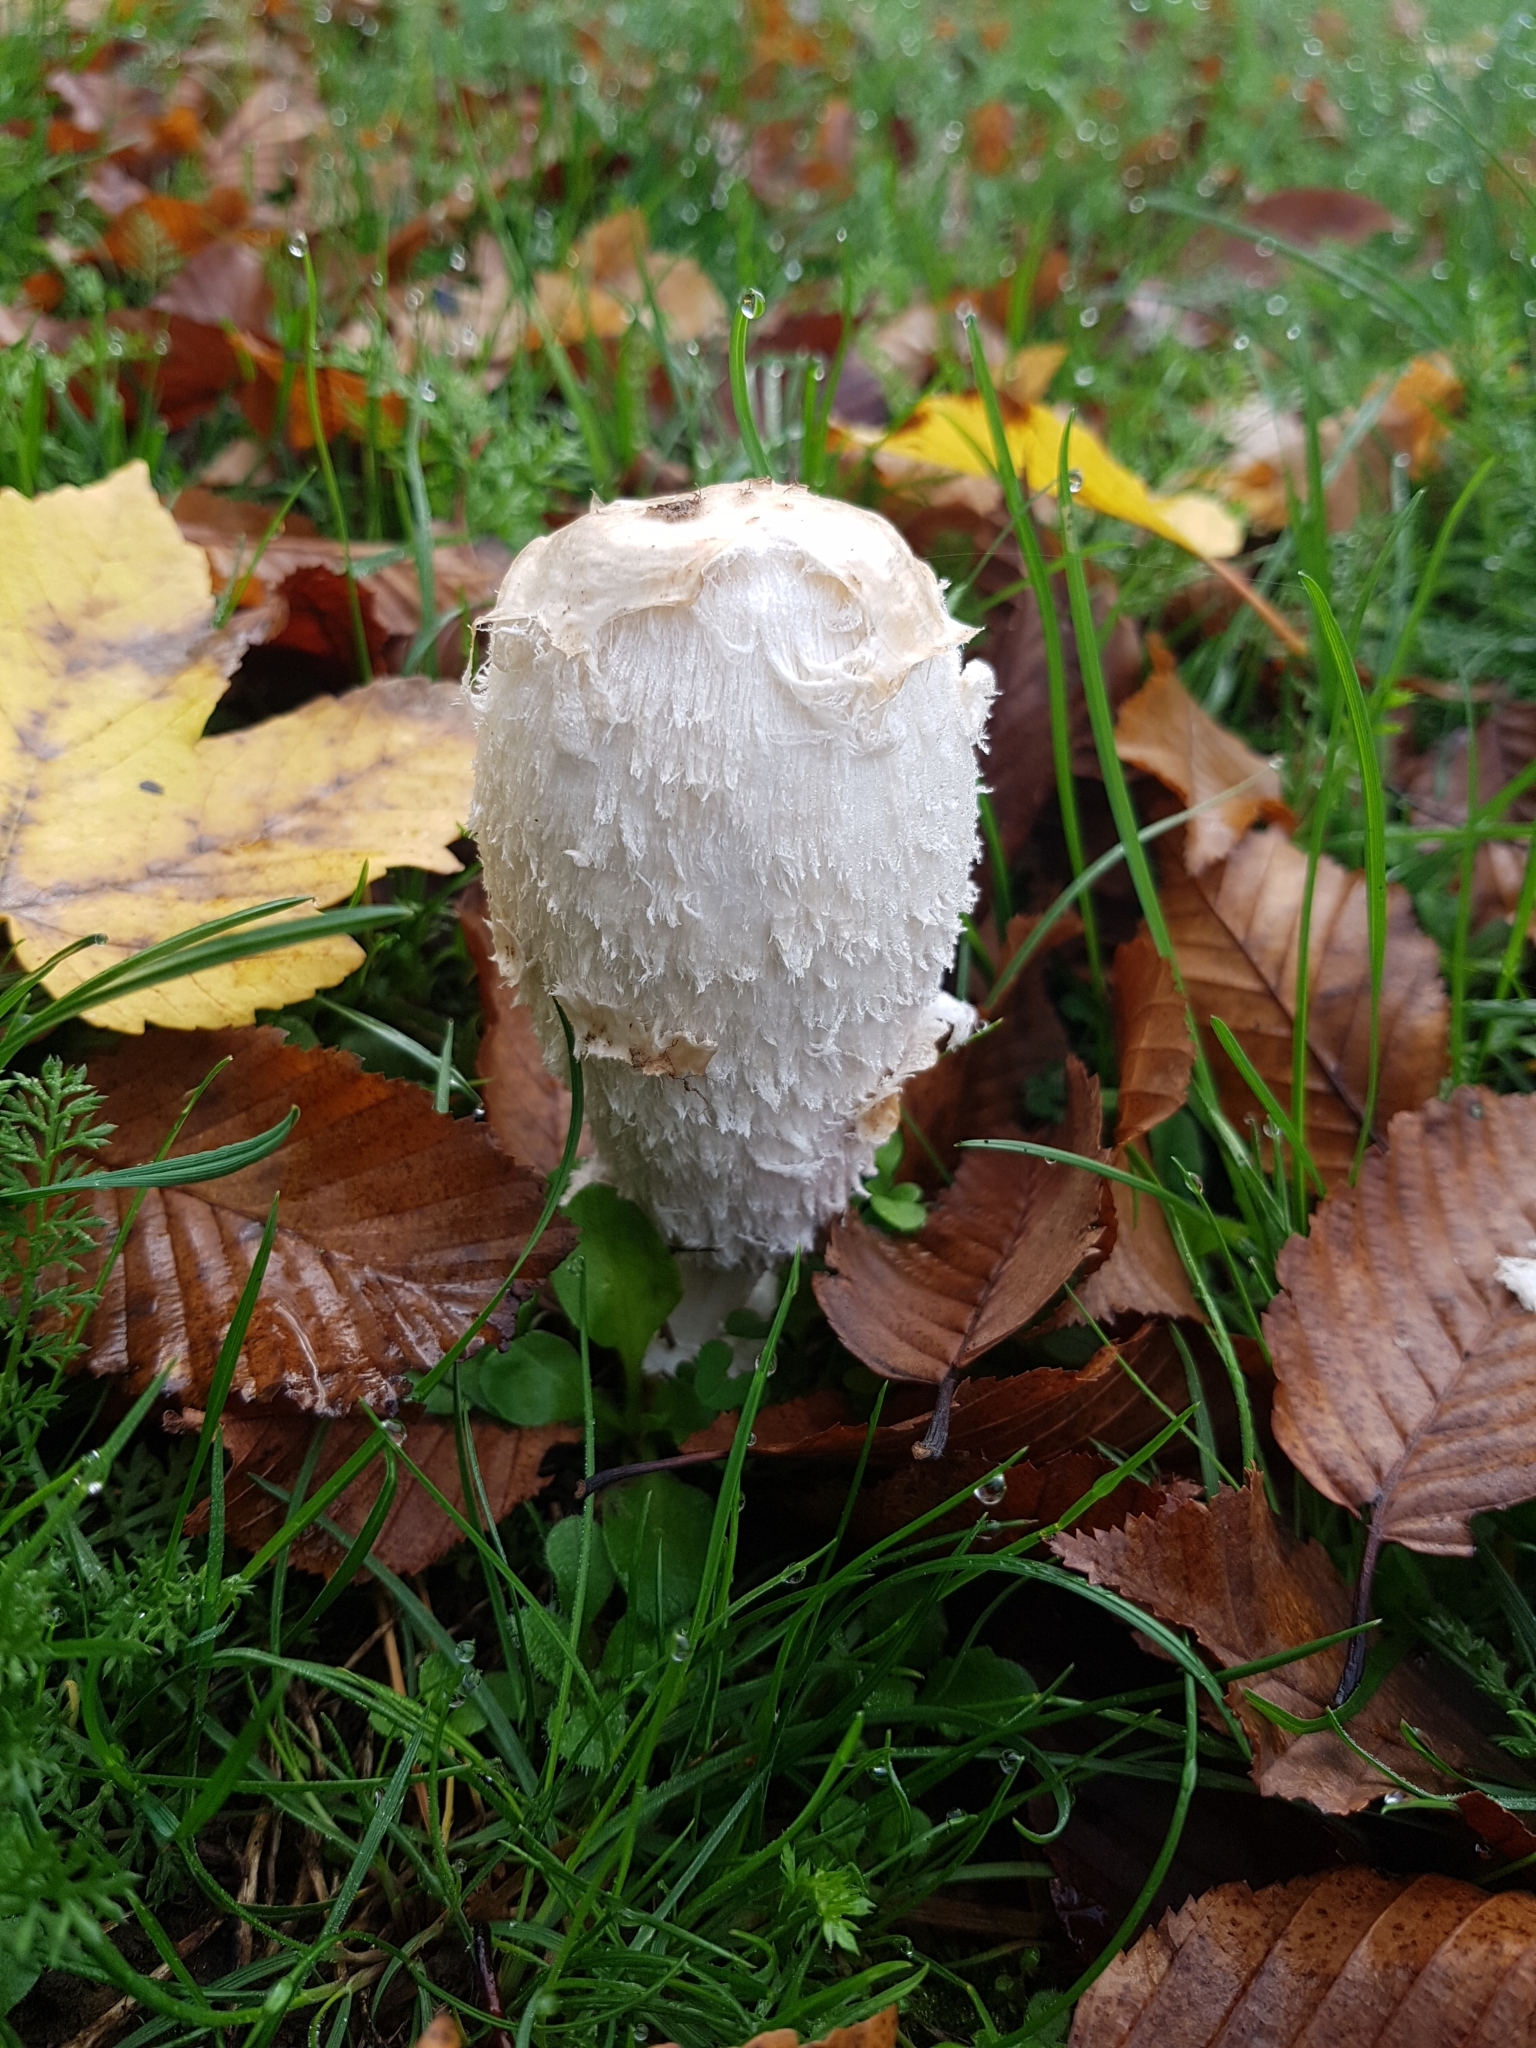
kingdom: Fungi
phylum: Basidiomycota
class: Agaricomycetes
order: Agaricales
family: Agaricaceae
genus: Coprinus
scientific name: Coprinus comatus
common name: Lawyer's wig
